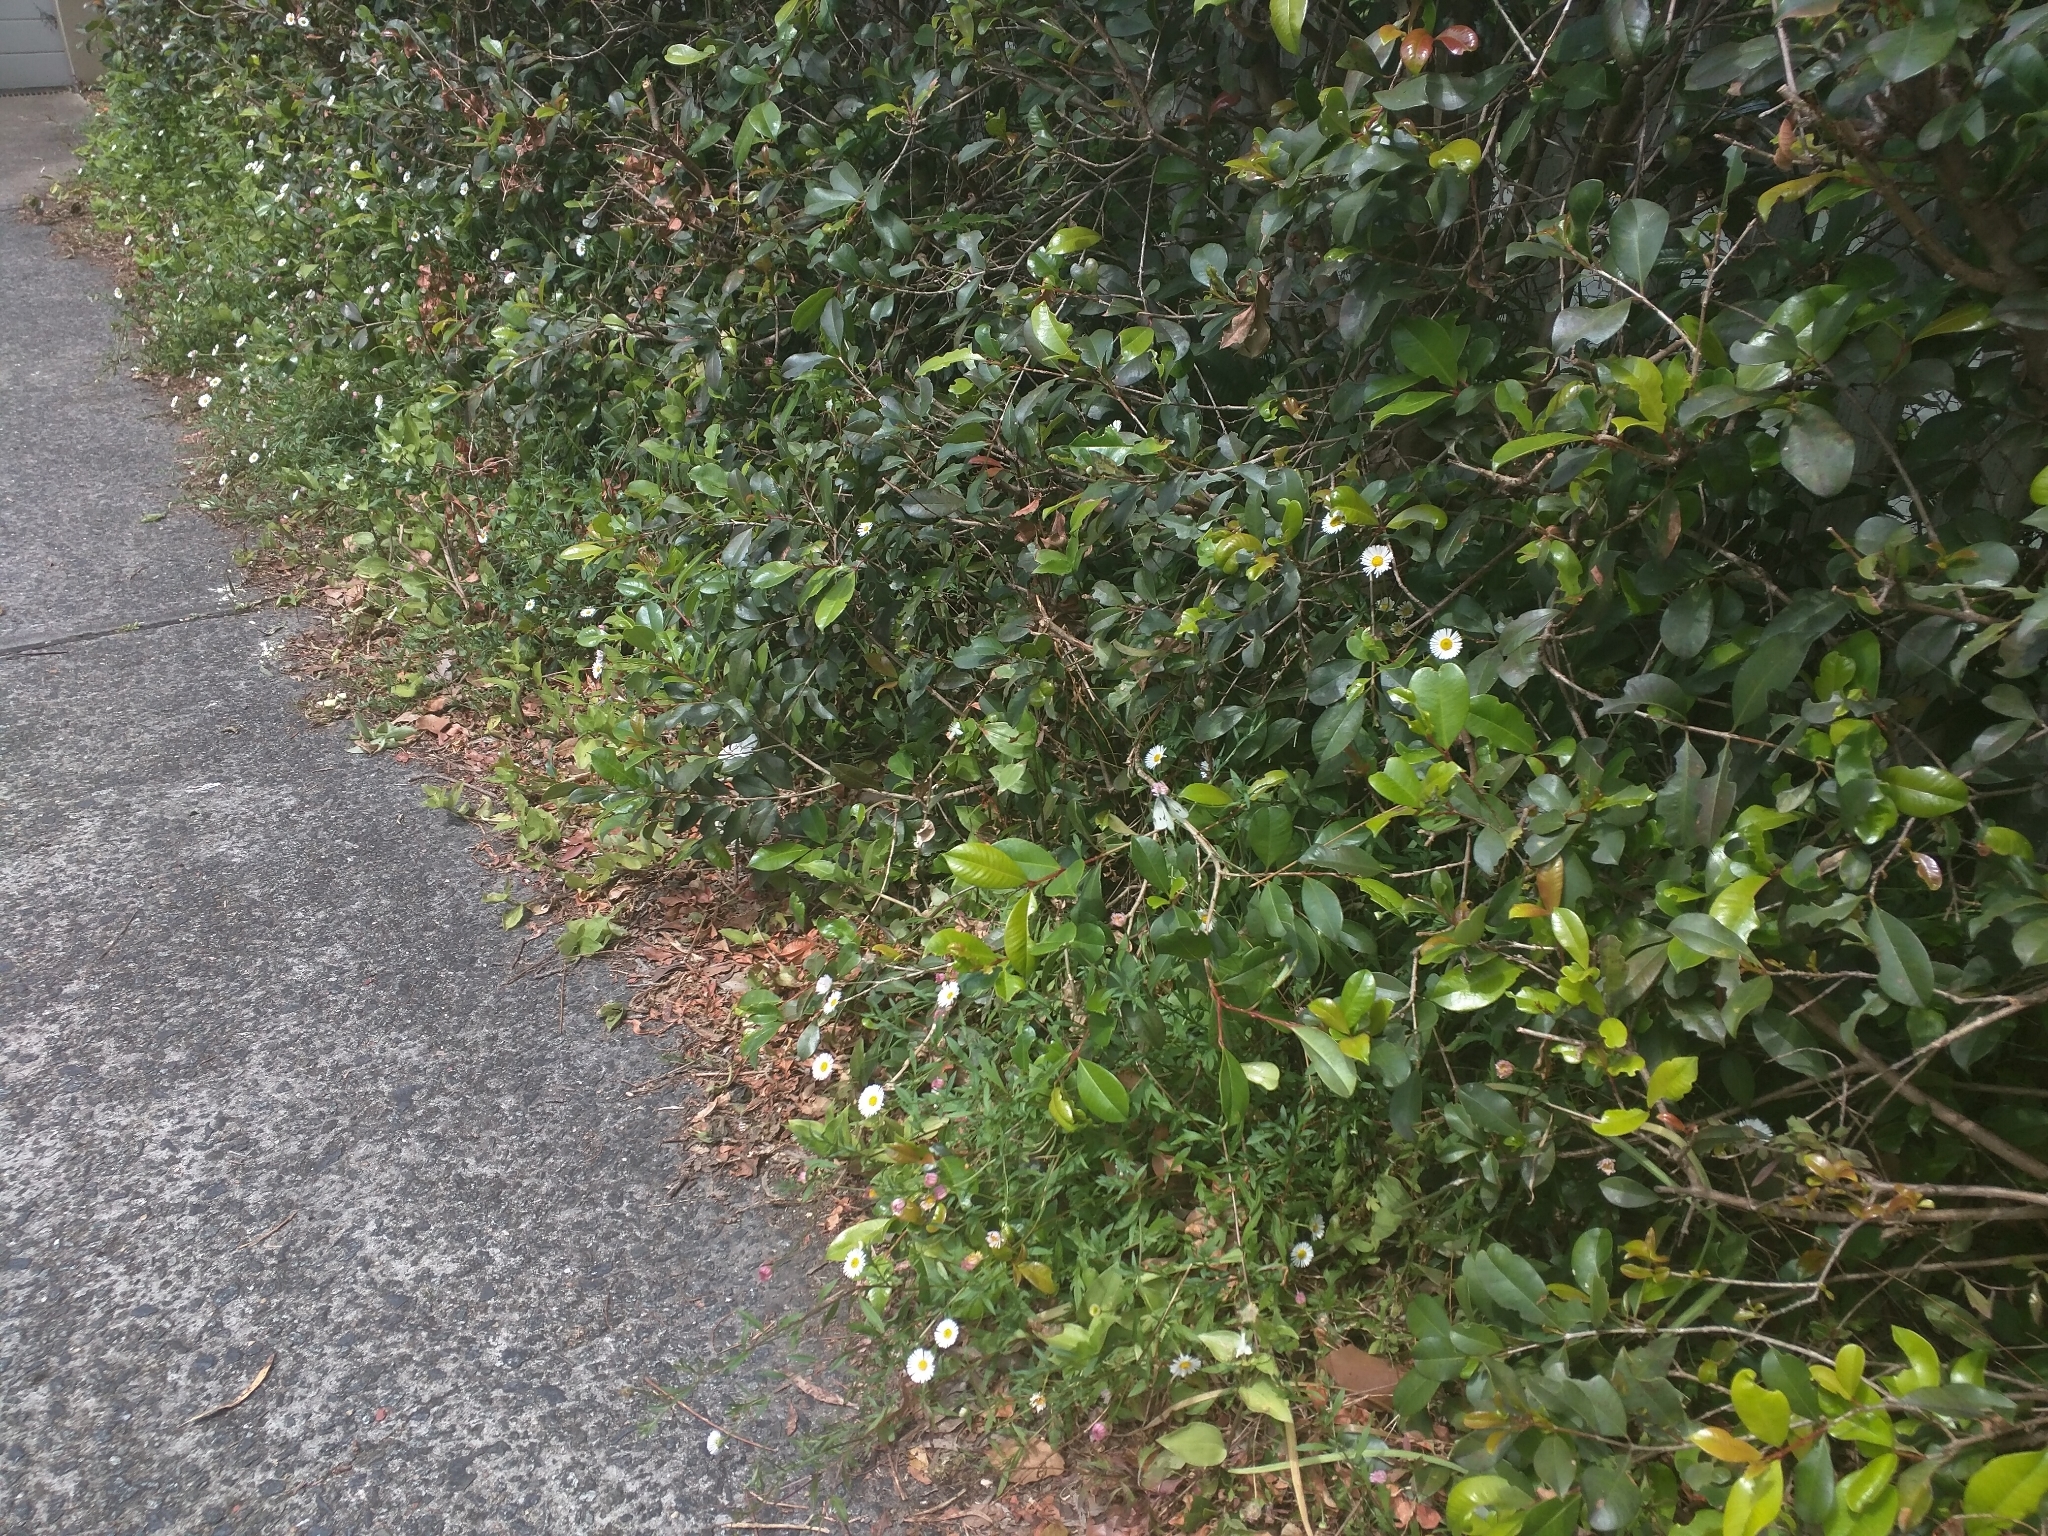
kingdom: Animalia
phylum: Arthropoda
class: Insecta
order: Lepidoptera
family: Pieridae
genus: Pieris
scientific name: Pieris rapae
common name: Small white
